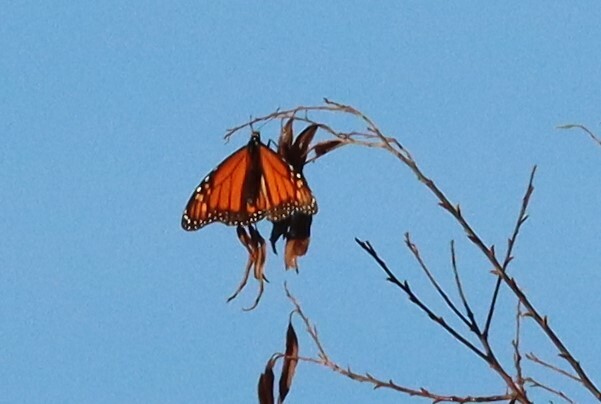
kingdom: Animalia
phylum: Arthropoda
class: Insecta
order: Lepidoptera
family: Nymphalidae
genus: Danaus
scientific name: Danaus plexippus
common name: Monarch
